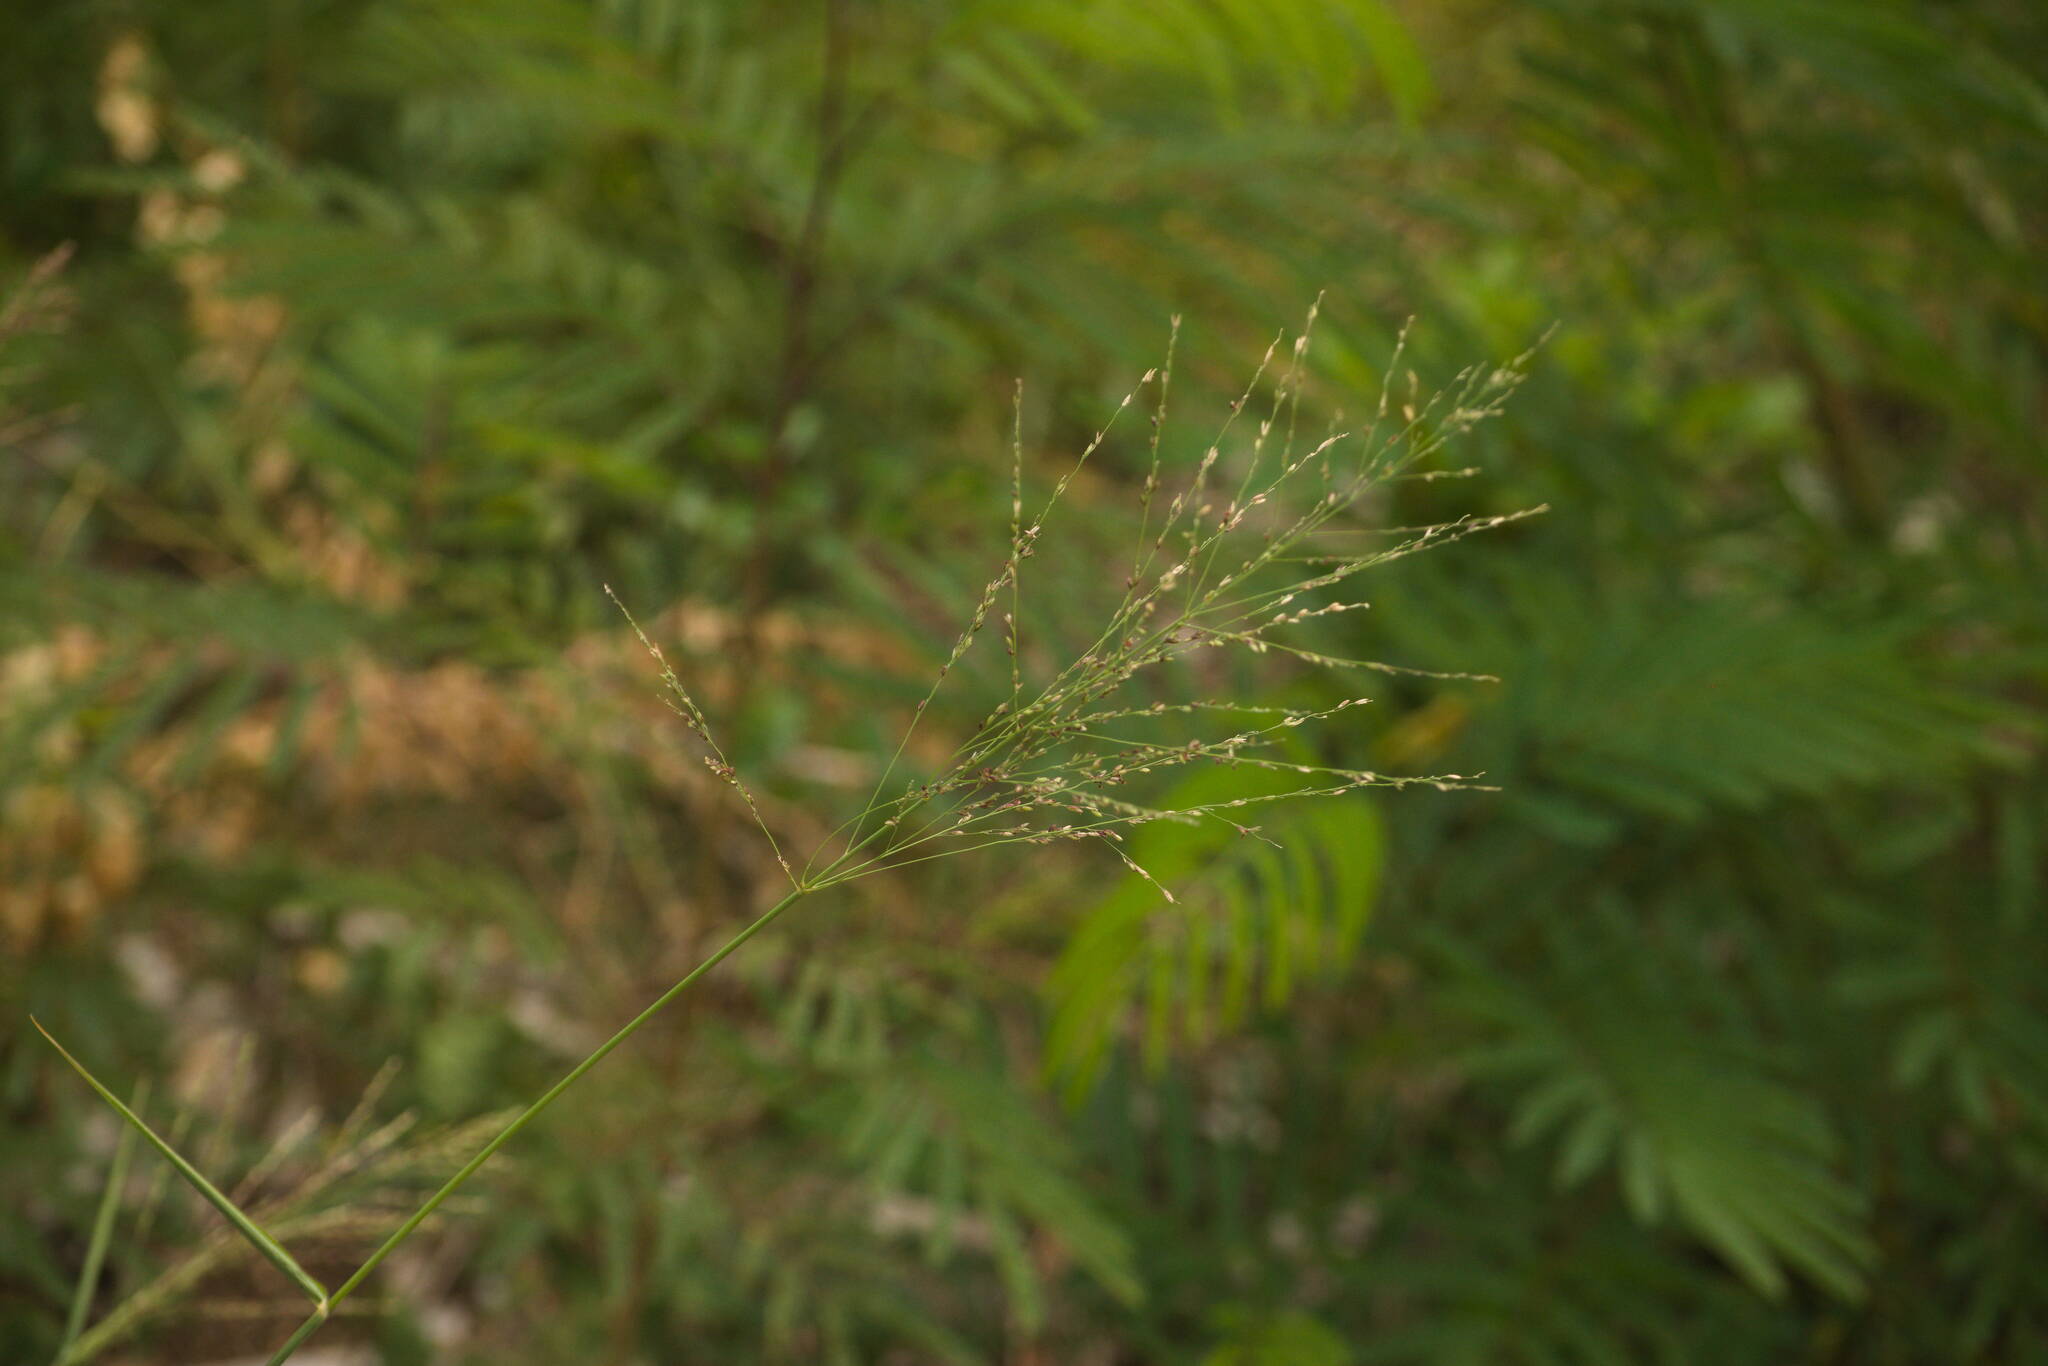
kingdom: Plantae
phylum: Tracheophyta
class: Liliopsida
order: Poales
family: Poaceae
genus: Megathyrsus
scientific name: Megathyrsus maximus
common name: Guineagrass
